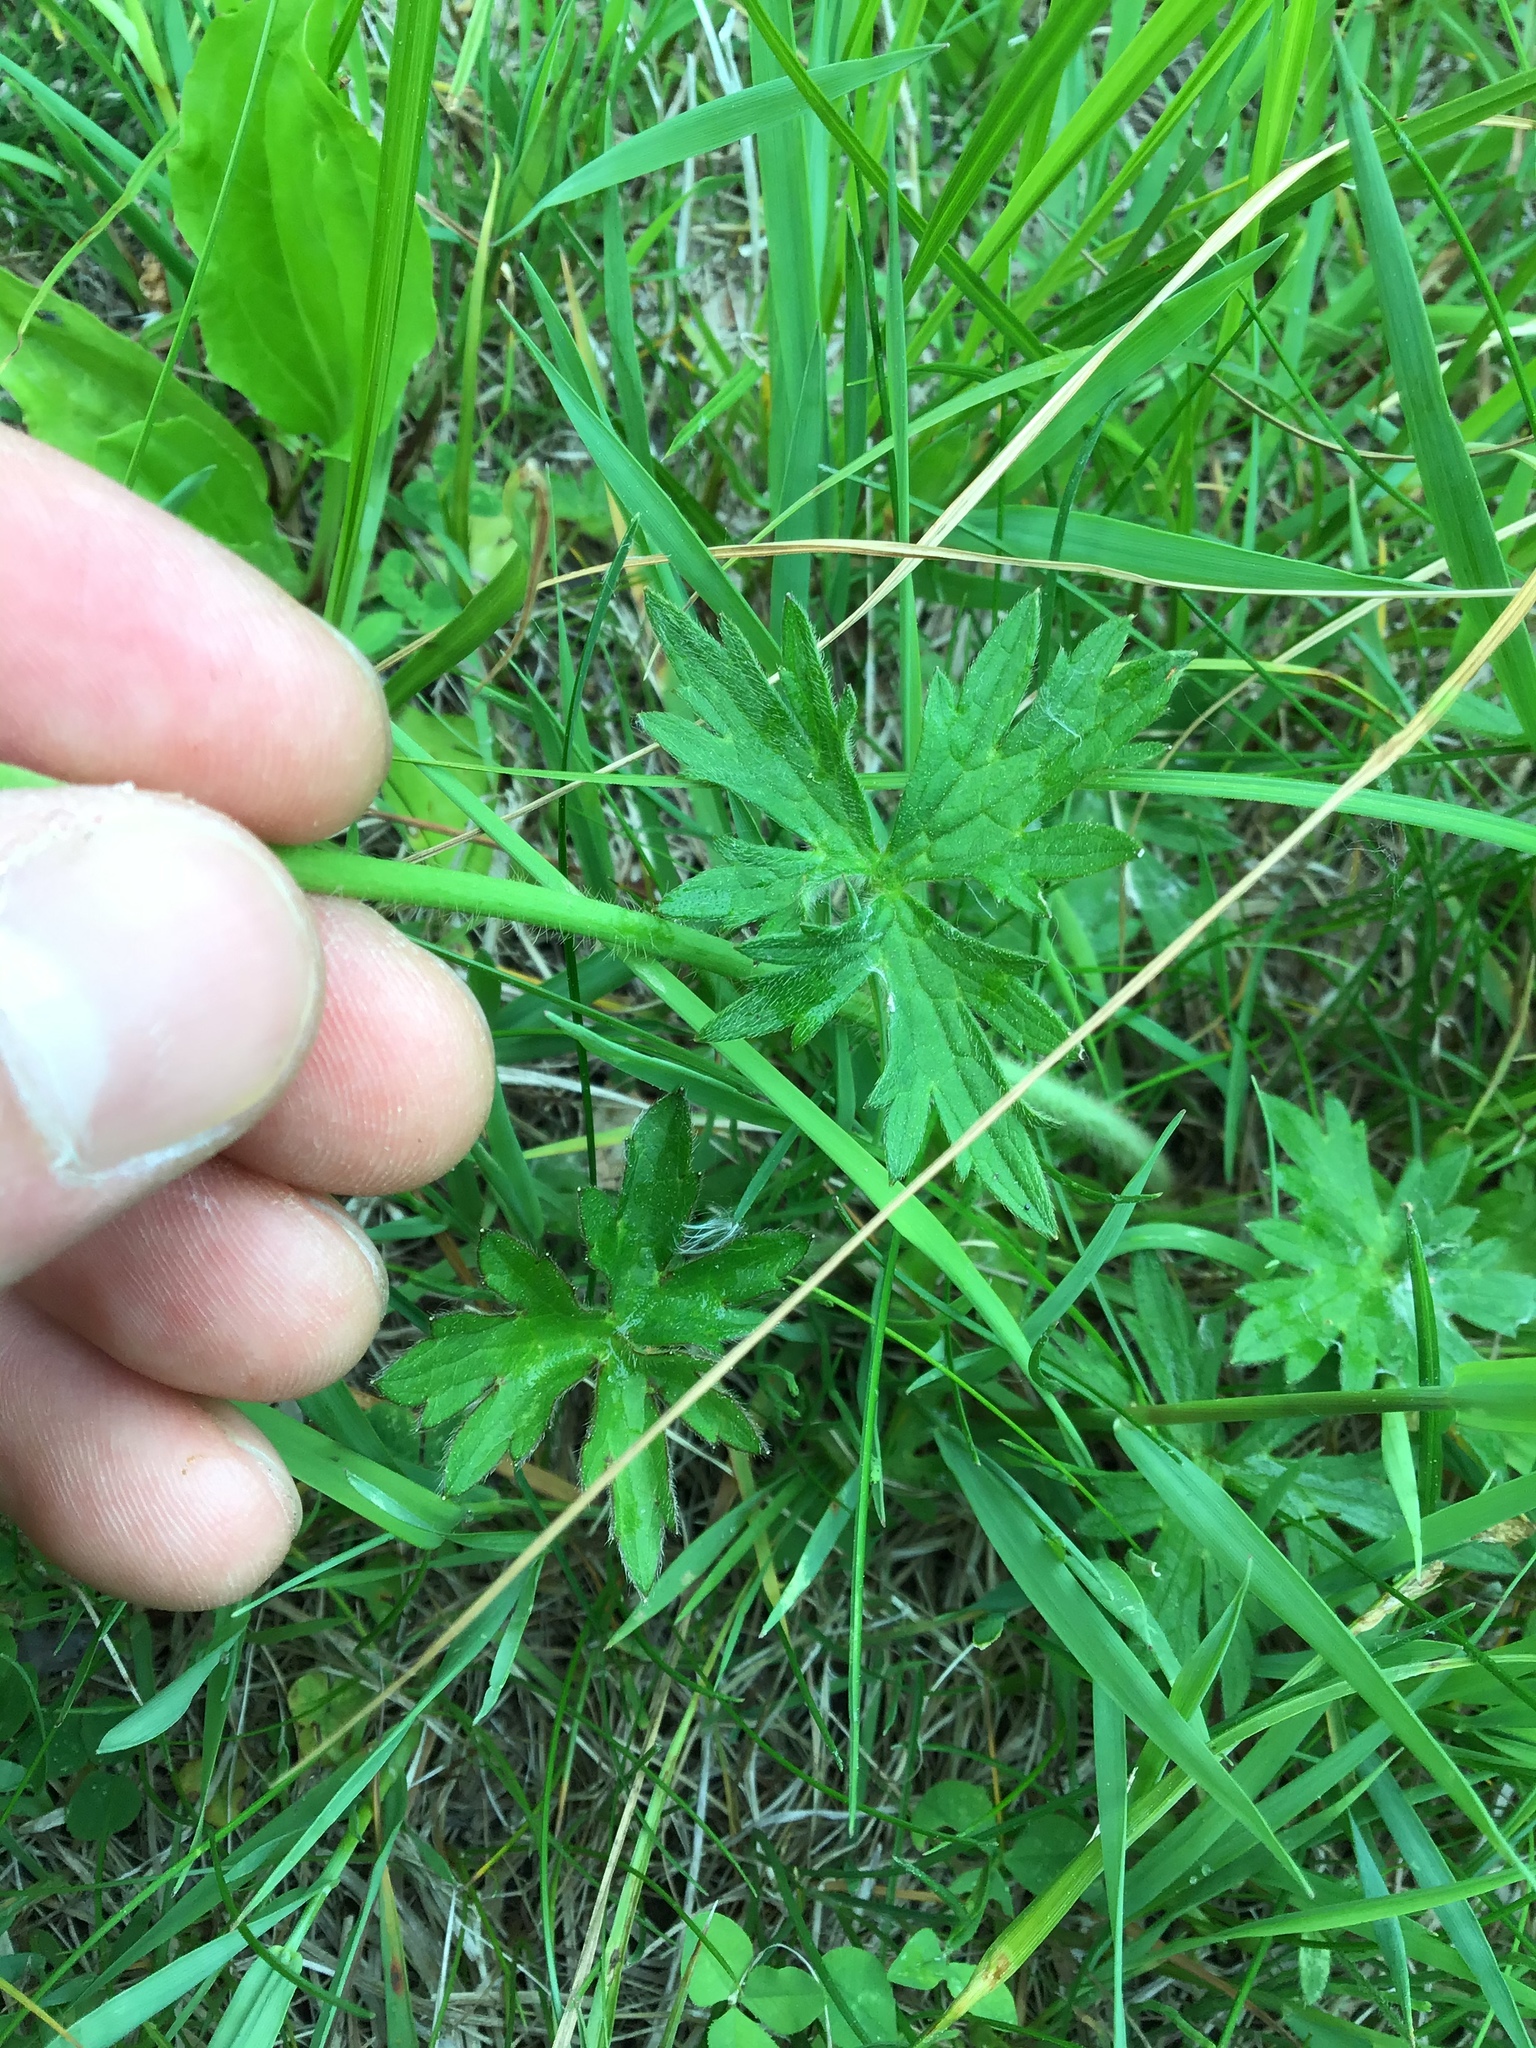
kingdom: Plantae
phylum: Tracheophyta
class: Magnoliopsida
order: Ranunculales
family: Ranunculaceae
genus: Ranunculus
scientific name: Ranunculus acris
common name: Meadow buttercup
